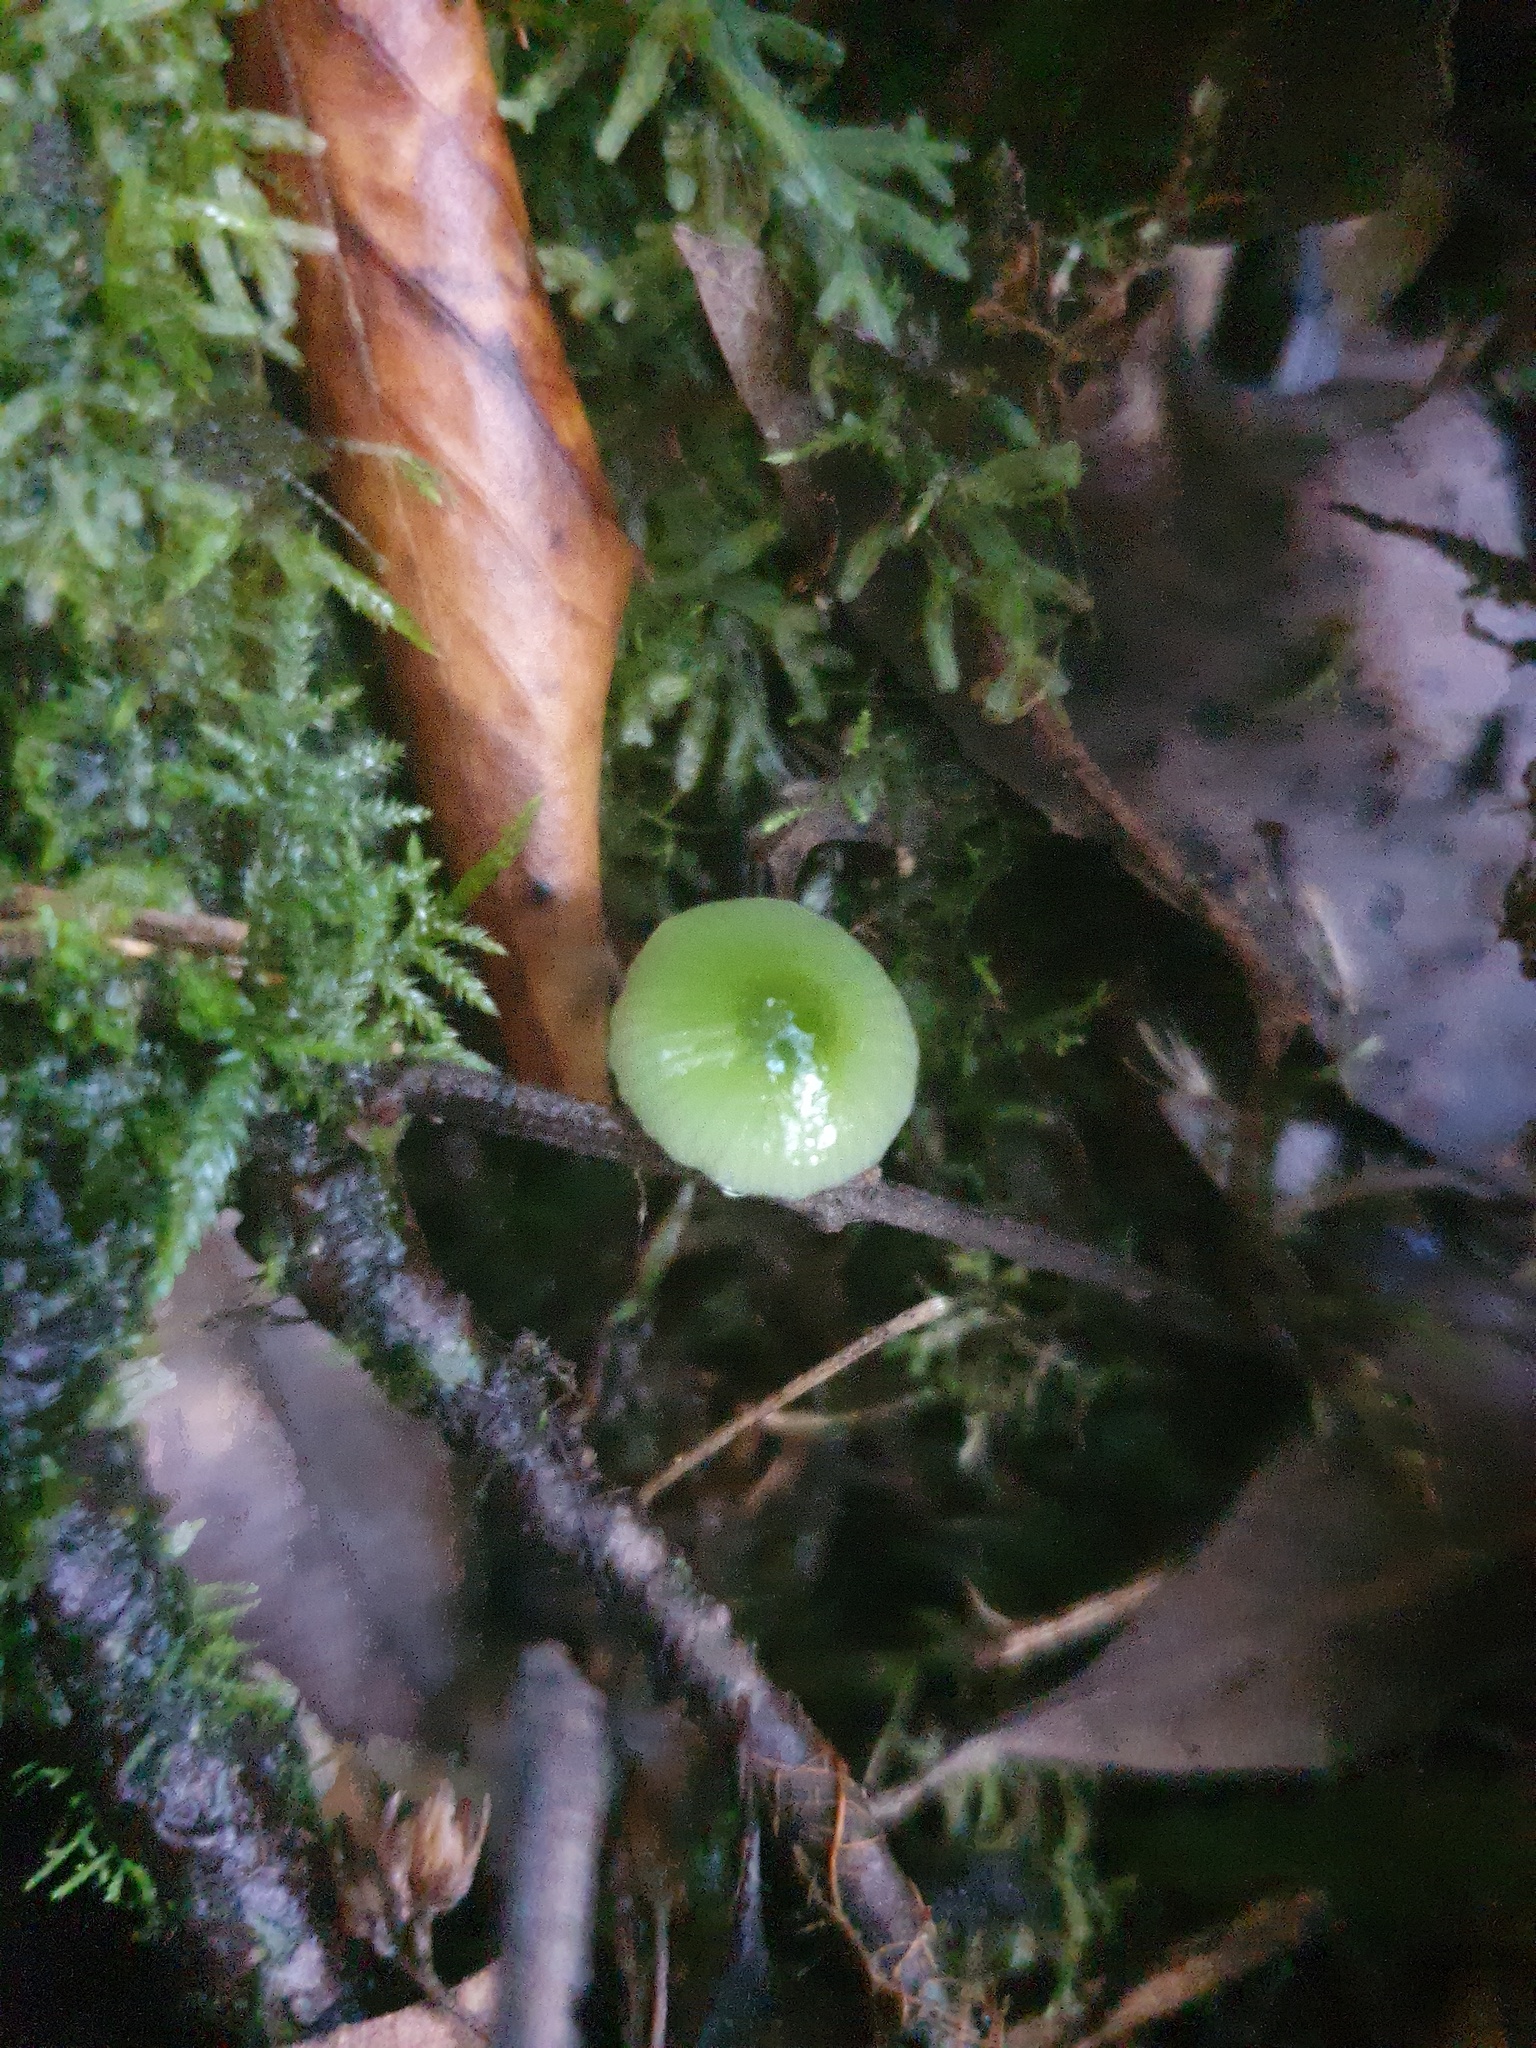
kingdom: Fungi
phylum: Basidiomycota
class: Agaricomycetes
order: Agaricales
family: Hygrophoraceae
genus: Gliophorus
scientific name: Gliophorus graminicolor
